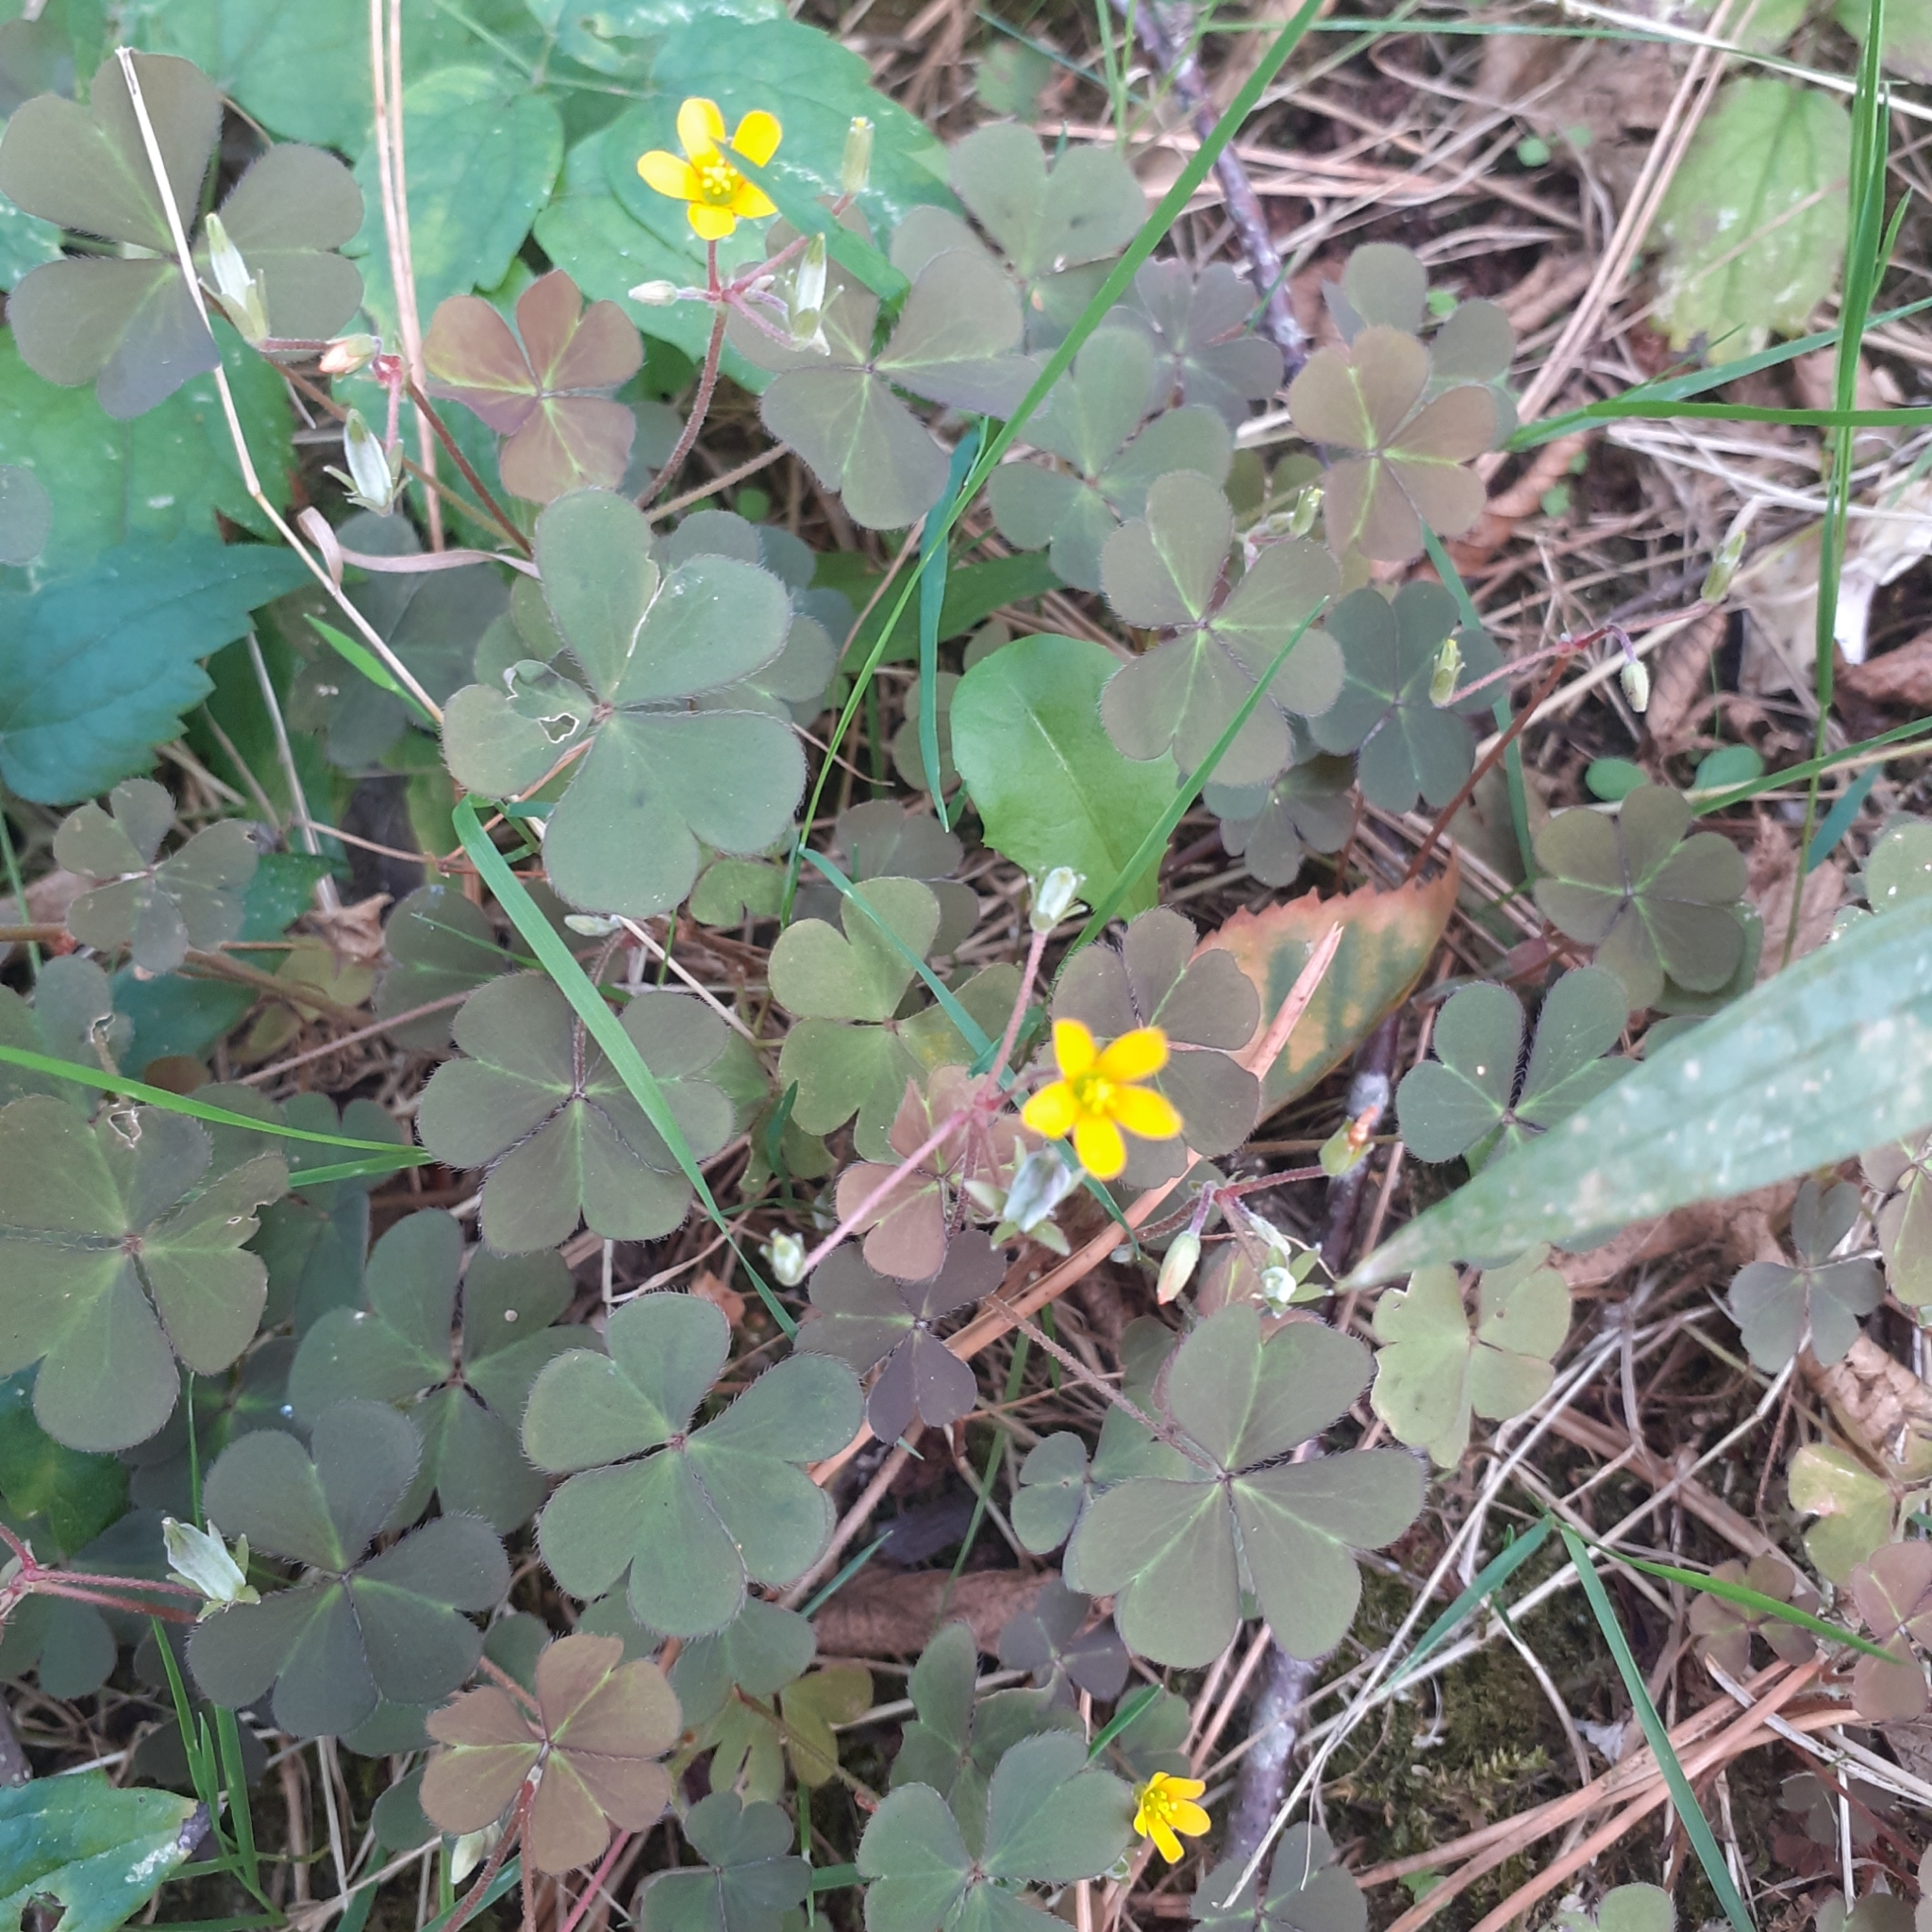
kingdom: Plantae
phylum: Tracheophyta
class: Magnoliopsida
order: Oxalidales
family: Oxalidaceae
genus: Oxalis
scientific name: Oxalis corniculata
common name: Procumbent yellow-sorrel
